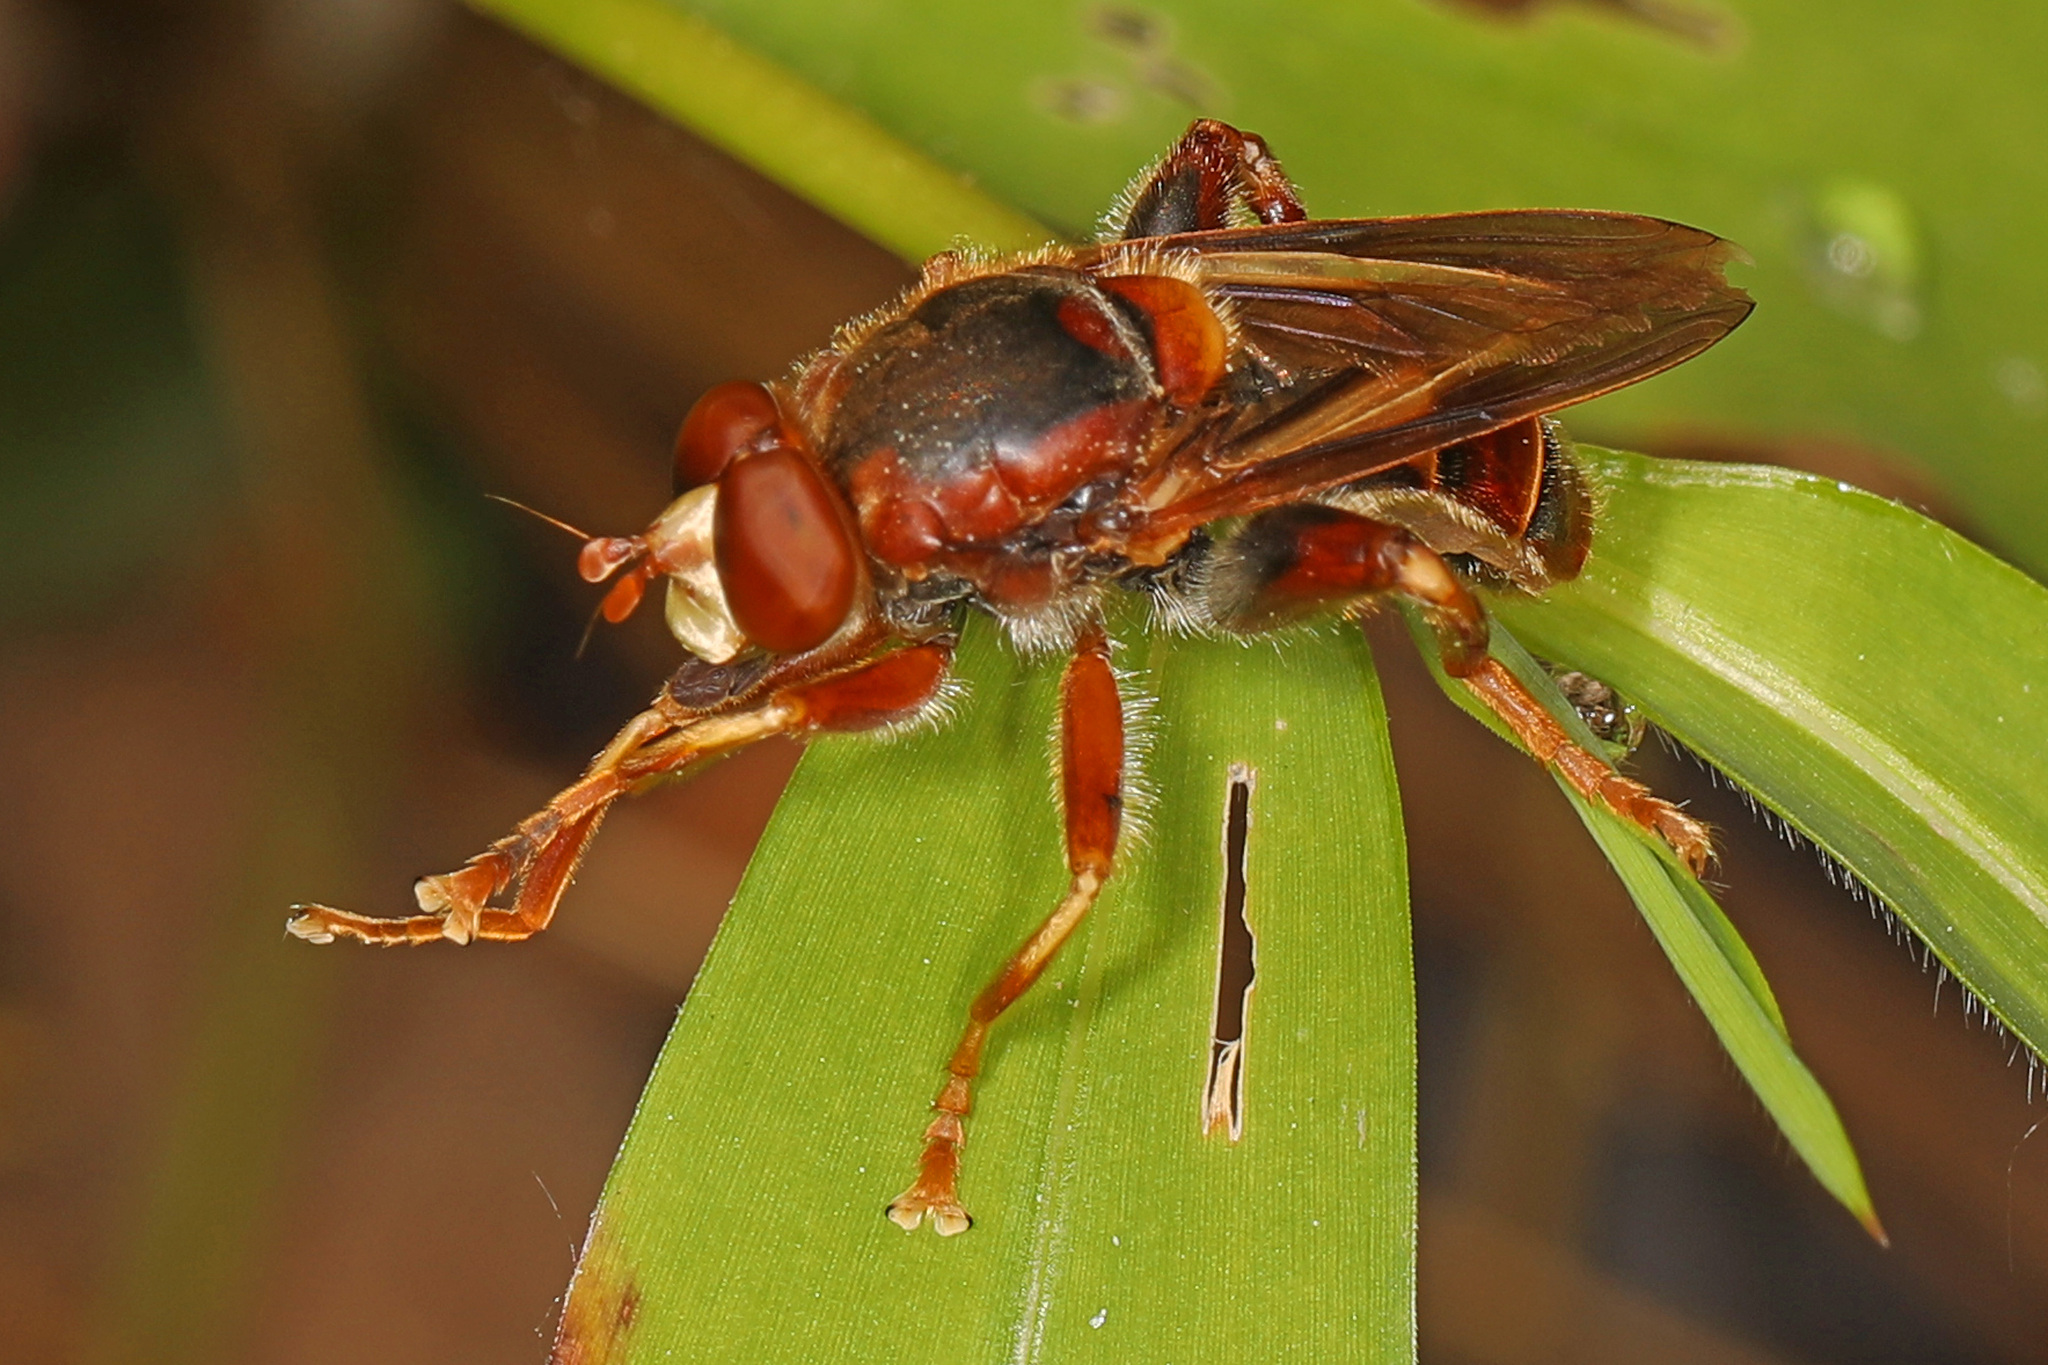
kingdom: Animalia
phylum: Arthropoda
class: Insecta
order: Diptera
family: Syrphidae
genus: Teuchocnemis
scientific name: Teuchocnemis bacuntius
